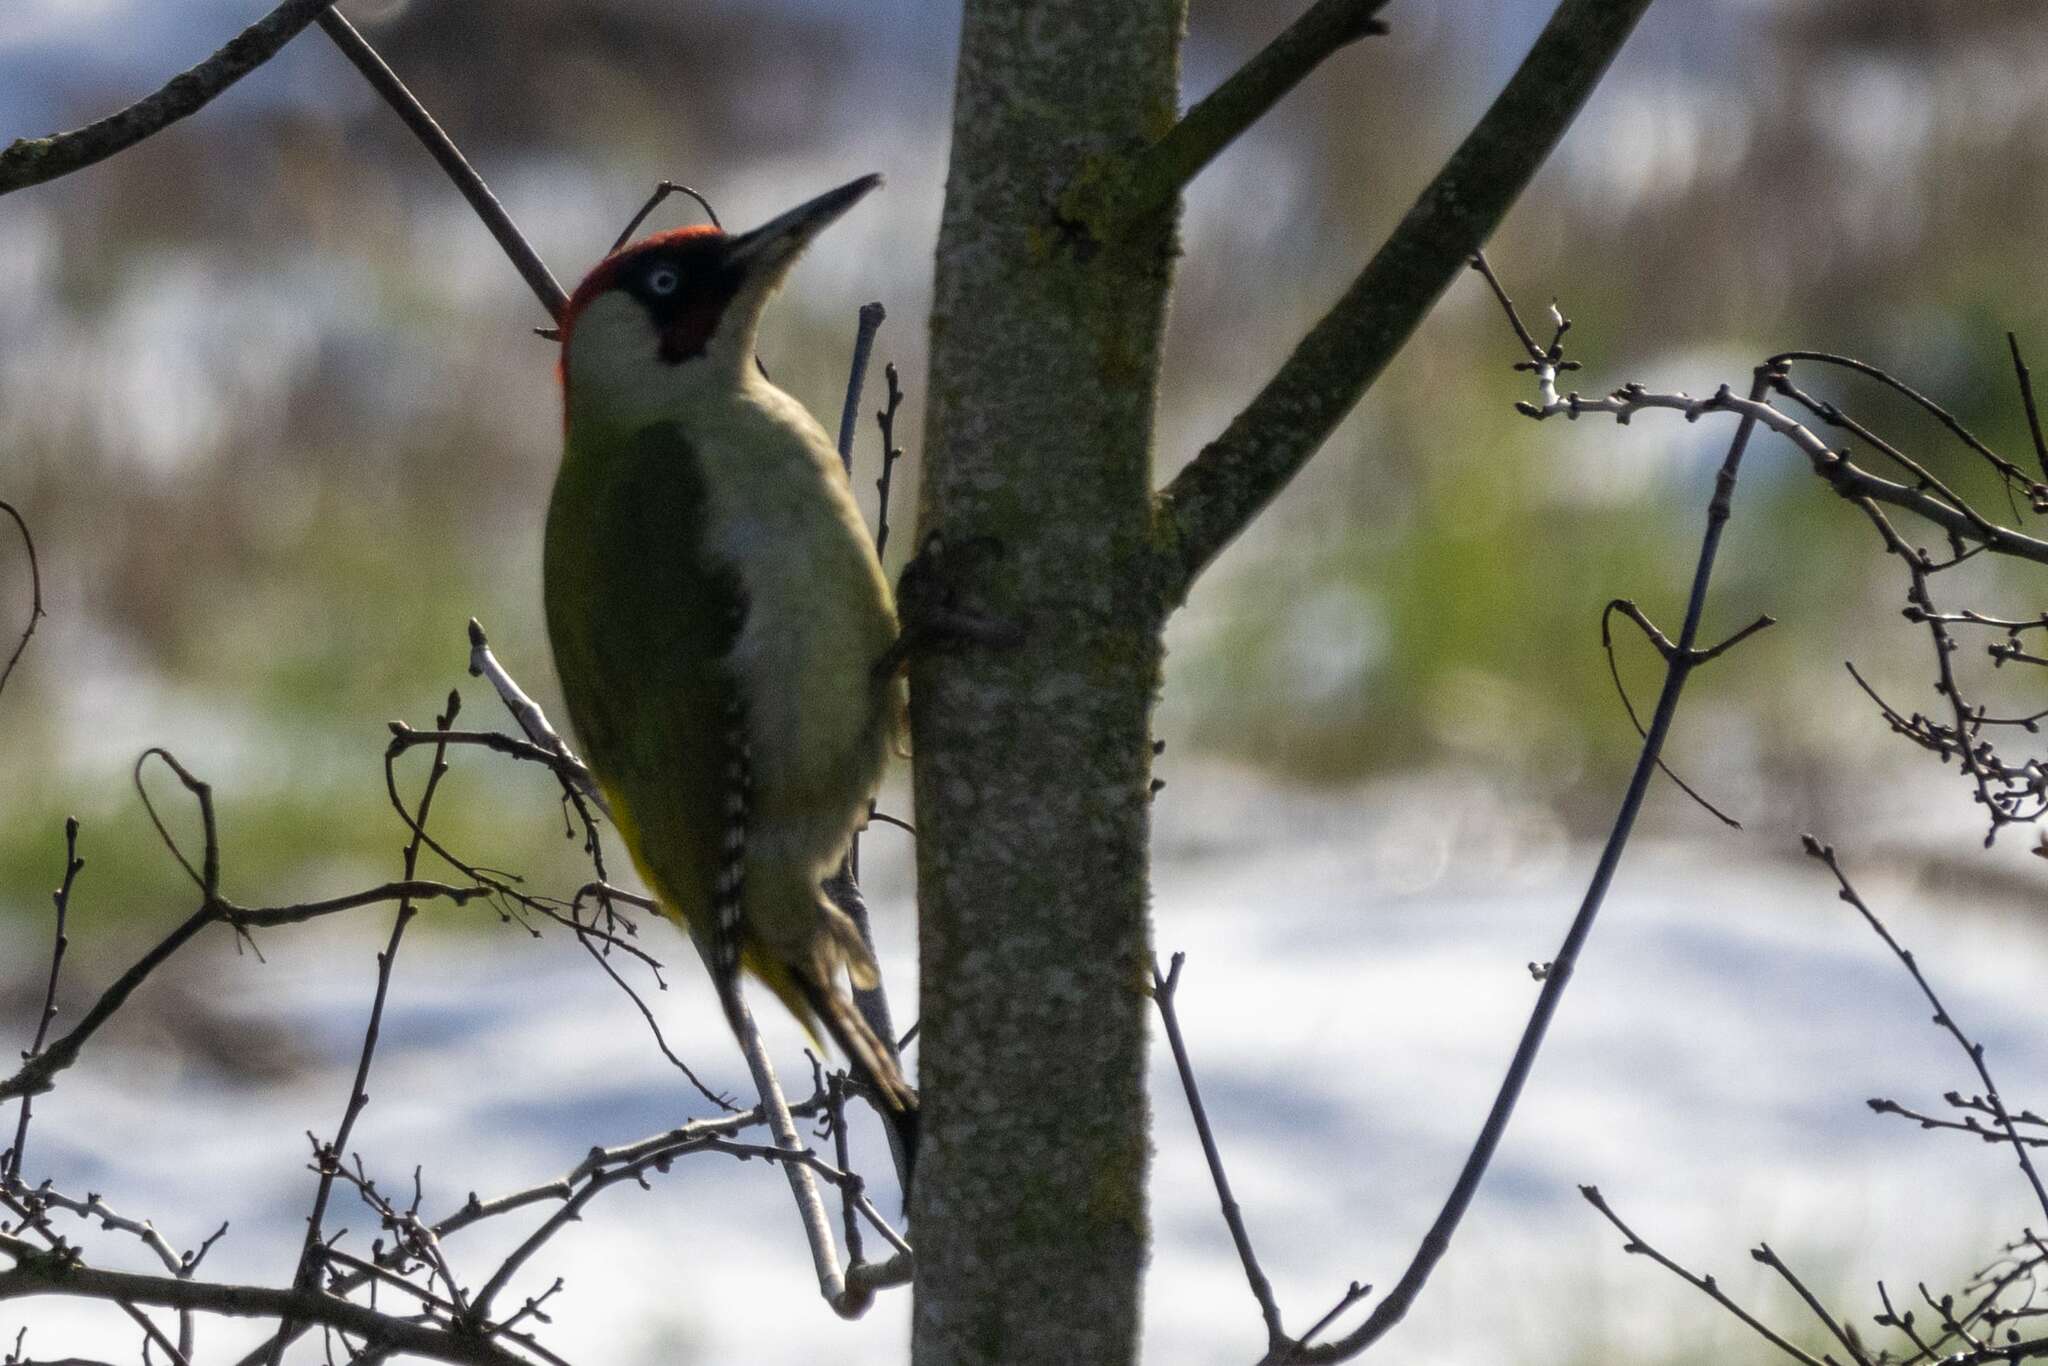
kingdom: Animalia
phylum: Chordata
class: Aves
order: Piciformes
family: Picidae
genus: Picus
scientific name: Picus viridis
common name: European green woodpecker
